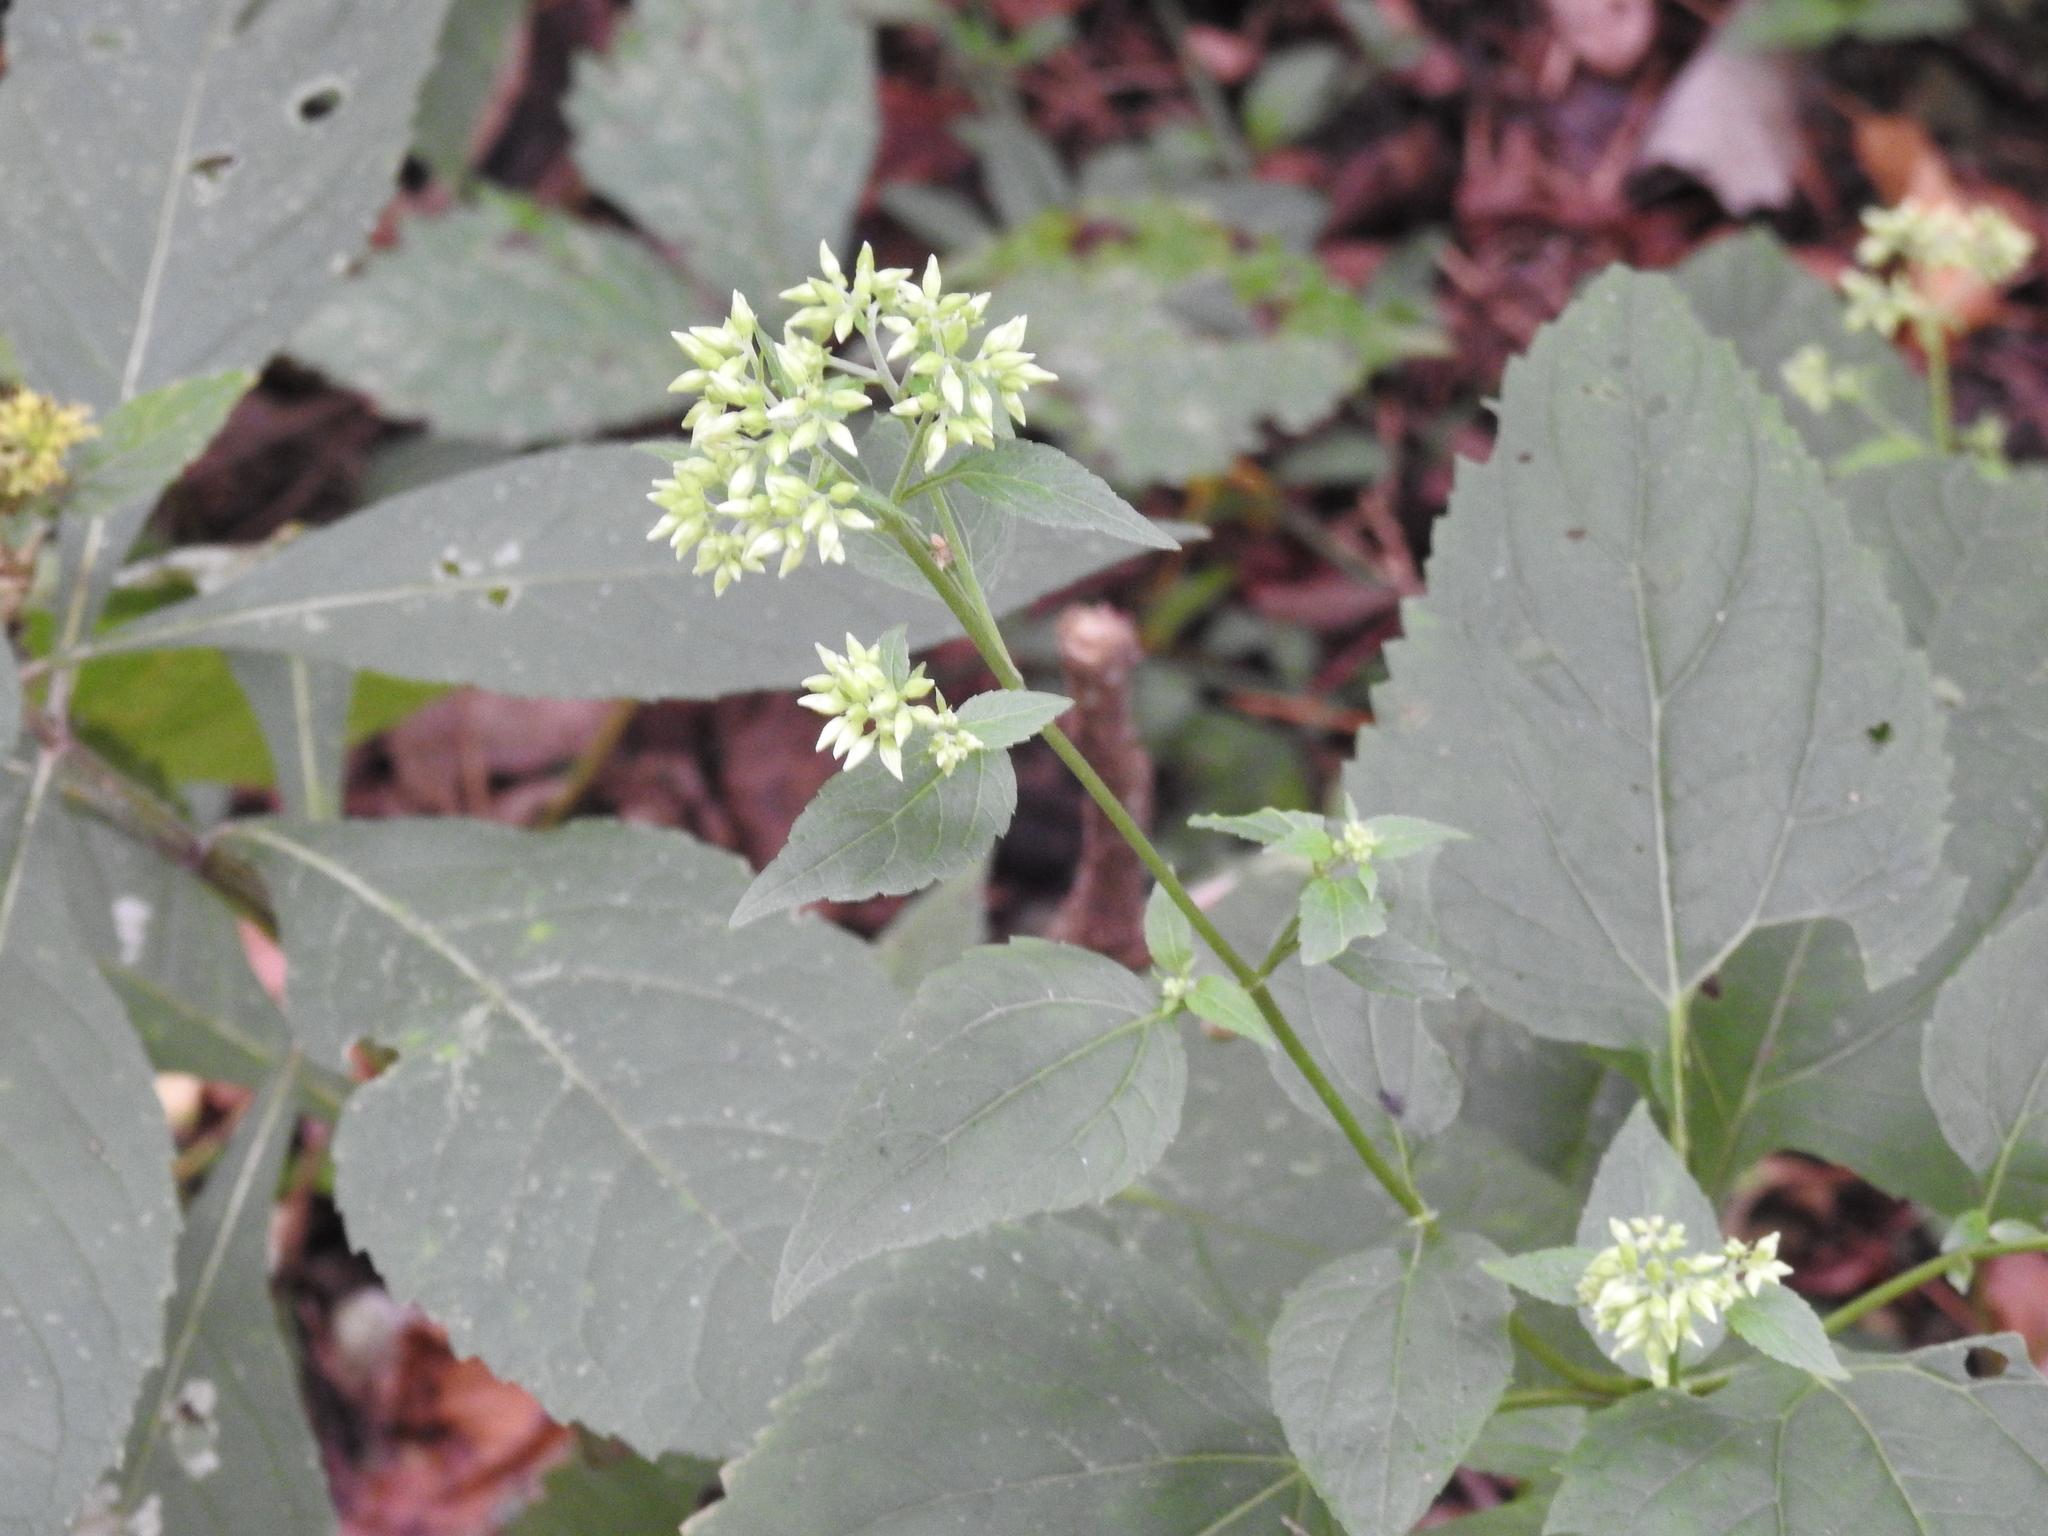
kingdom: Plantae
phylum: Tracheophyta
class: Magnoliopsida
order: Asterales
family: Asteraceae
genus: Ageratina
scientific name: Ageratina altissima
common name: White snakeroot
